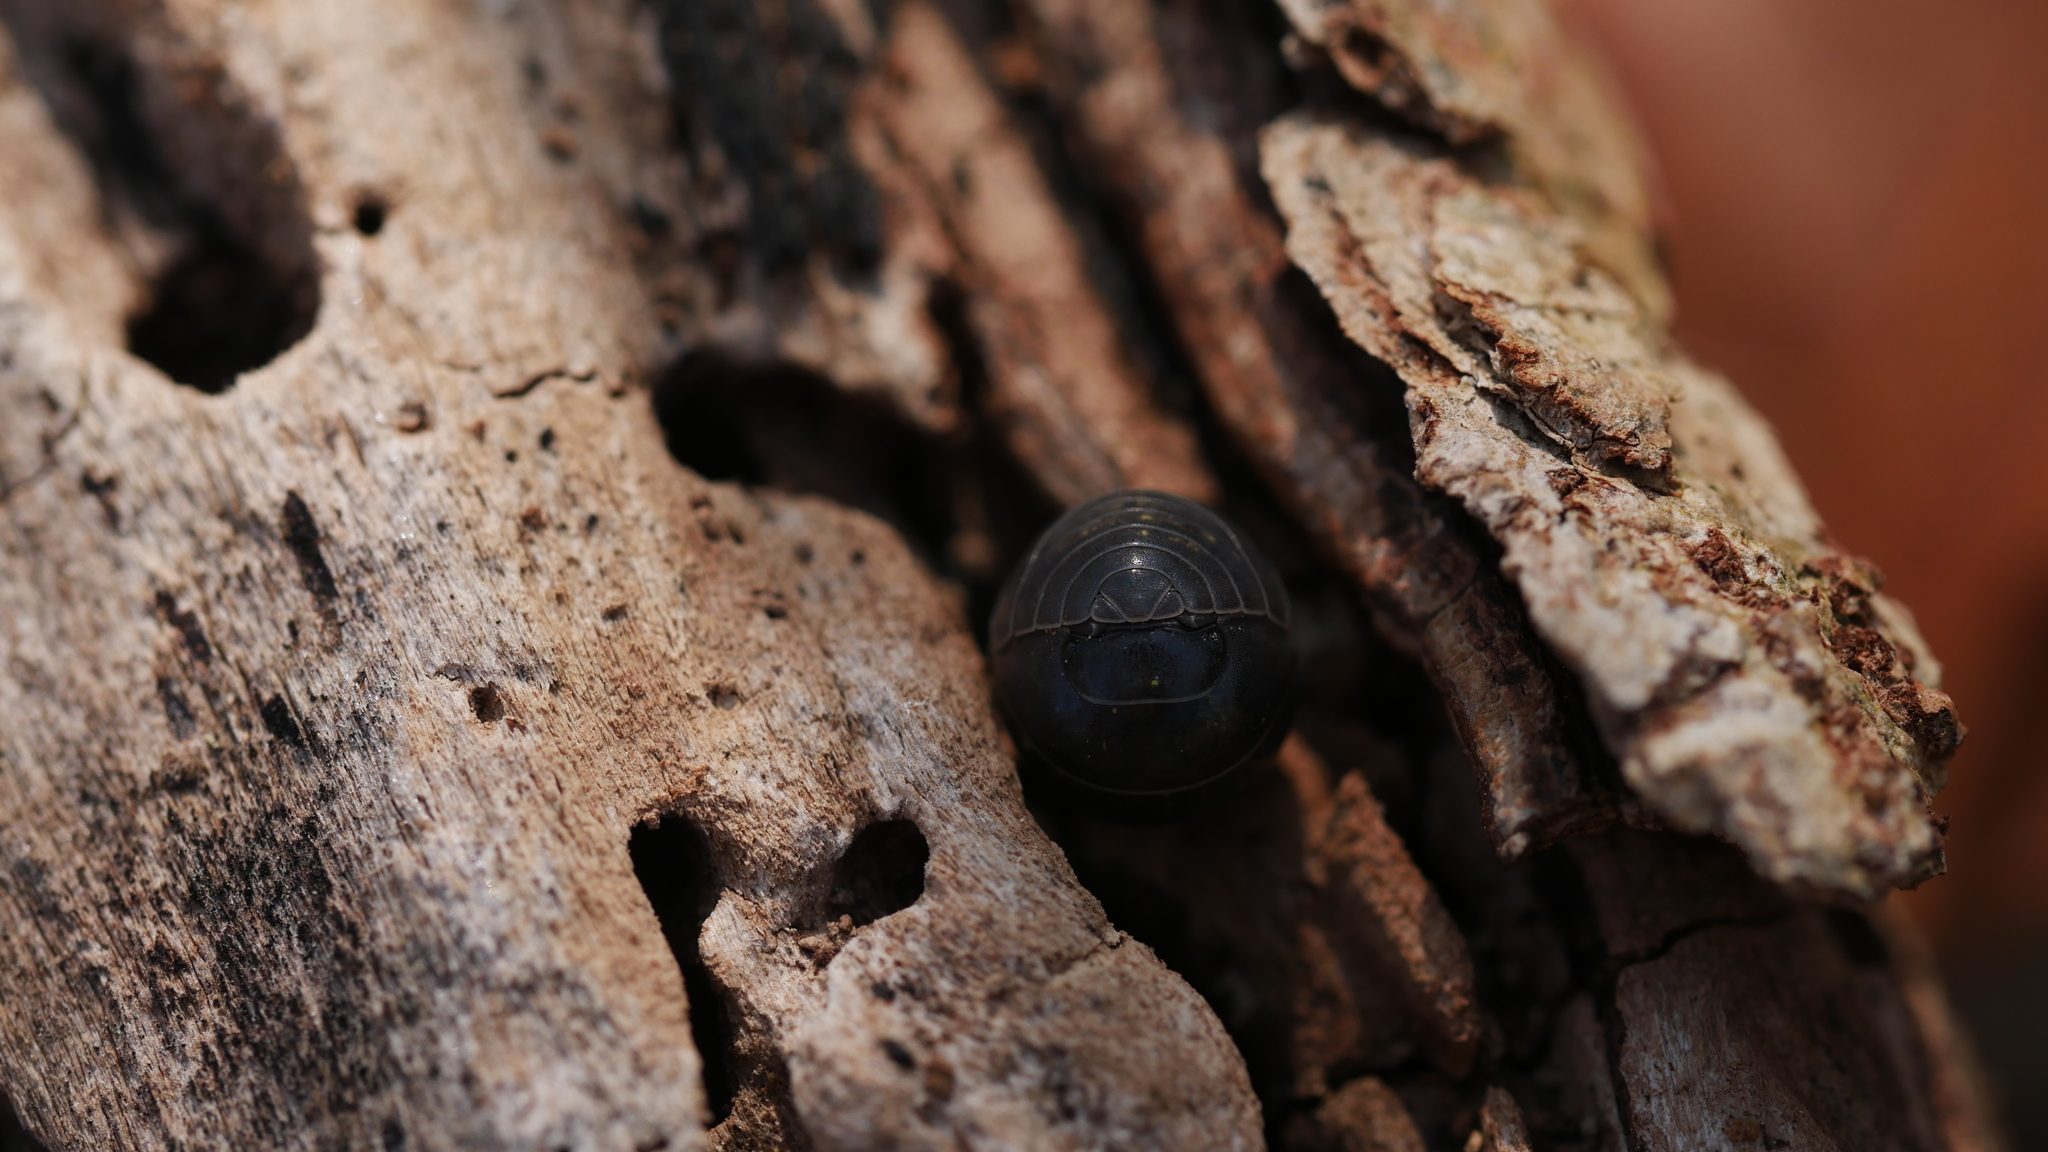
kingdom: Animalia
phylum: Arthropoda
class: Malacostraca
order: Isopoda
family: Armadillidiidae
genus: Armadillidium
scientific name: Armadillidium vulgare
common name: Common pill woodlouse
